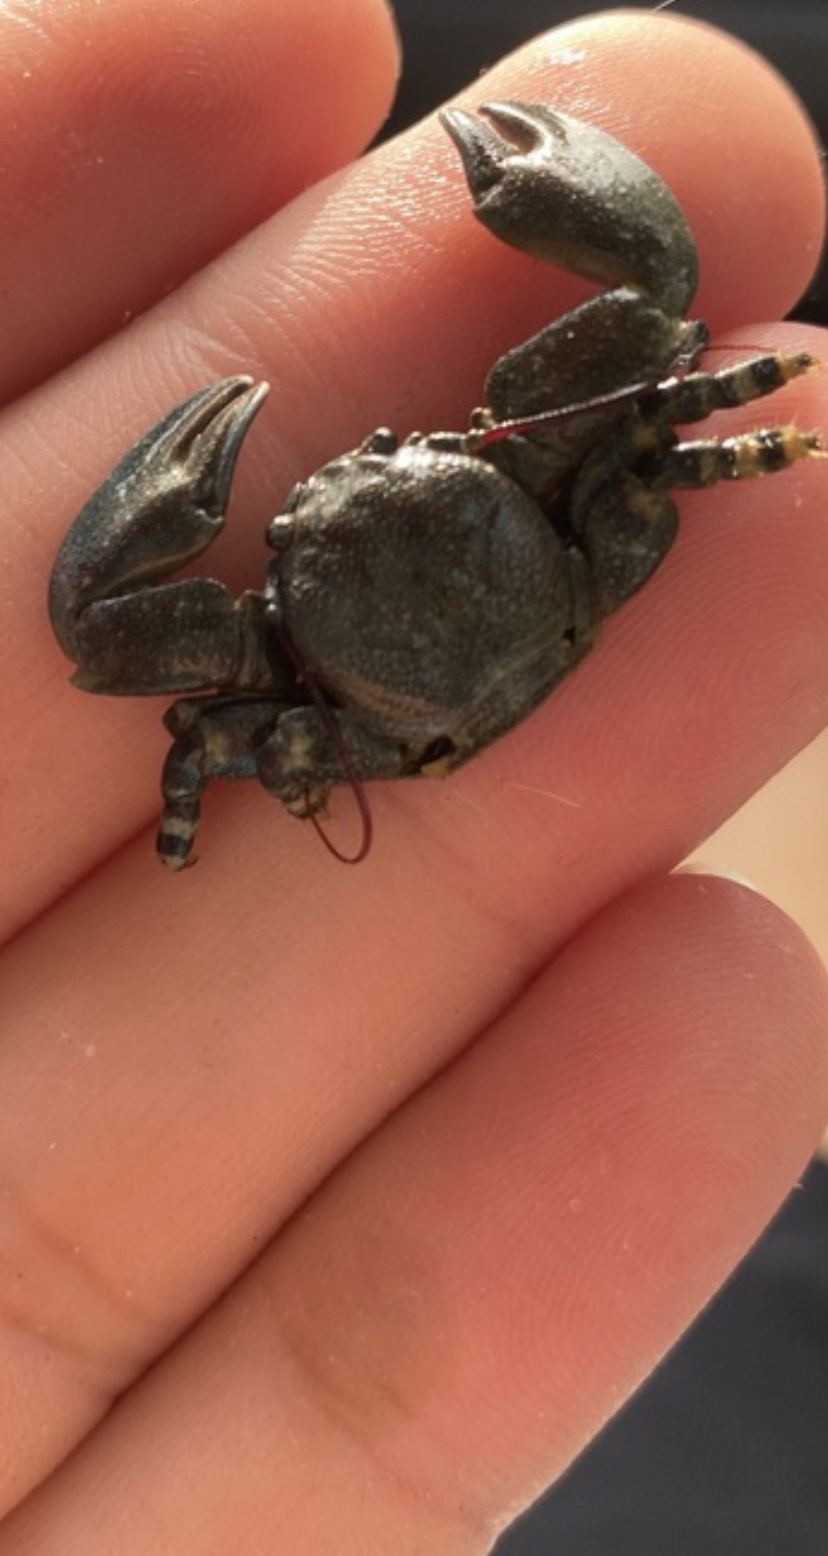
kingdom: Animalia
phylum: Arthropoda
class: Malacostraca
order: Decapoda
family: Porcellanidae
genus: Petrolisthes
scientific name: Petrolisthes cinctipes
